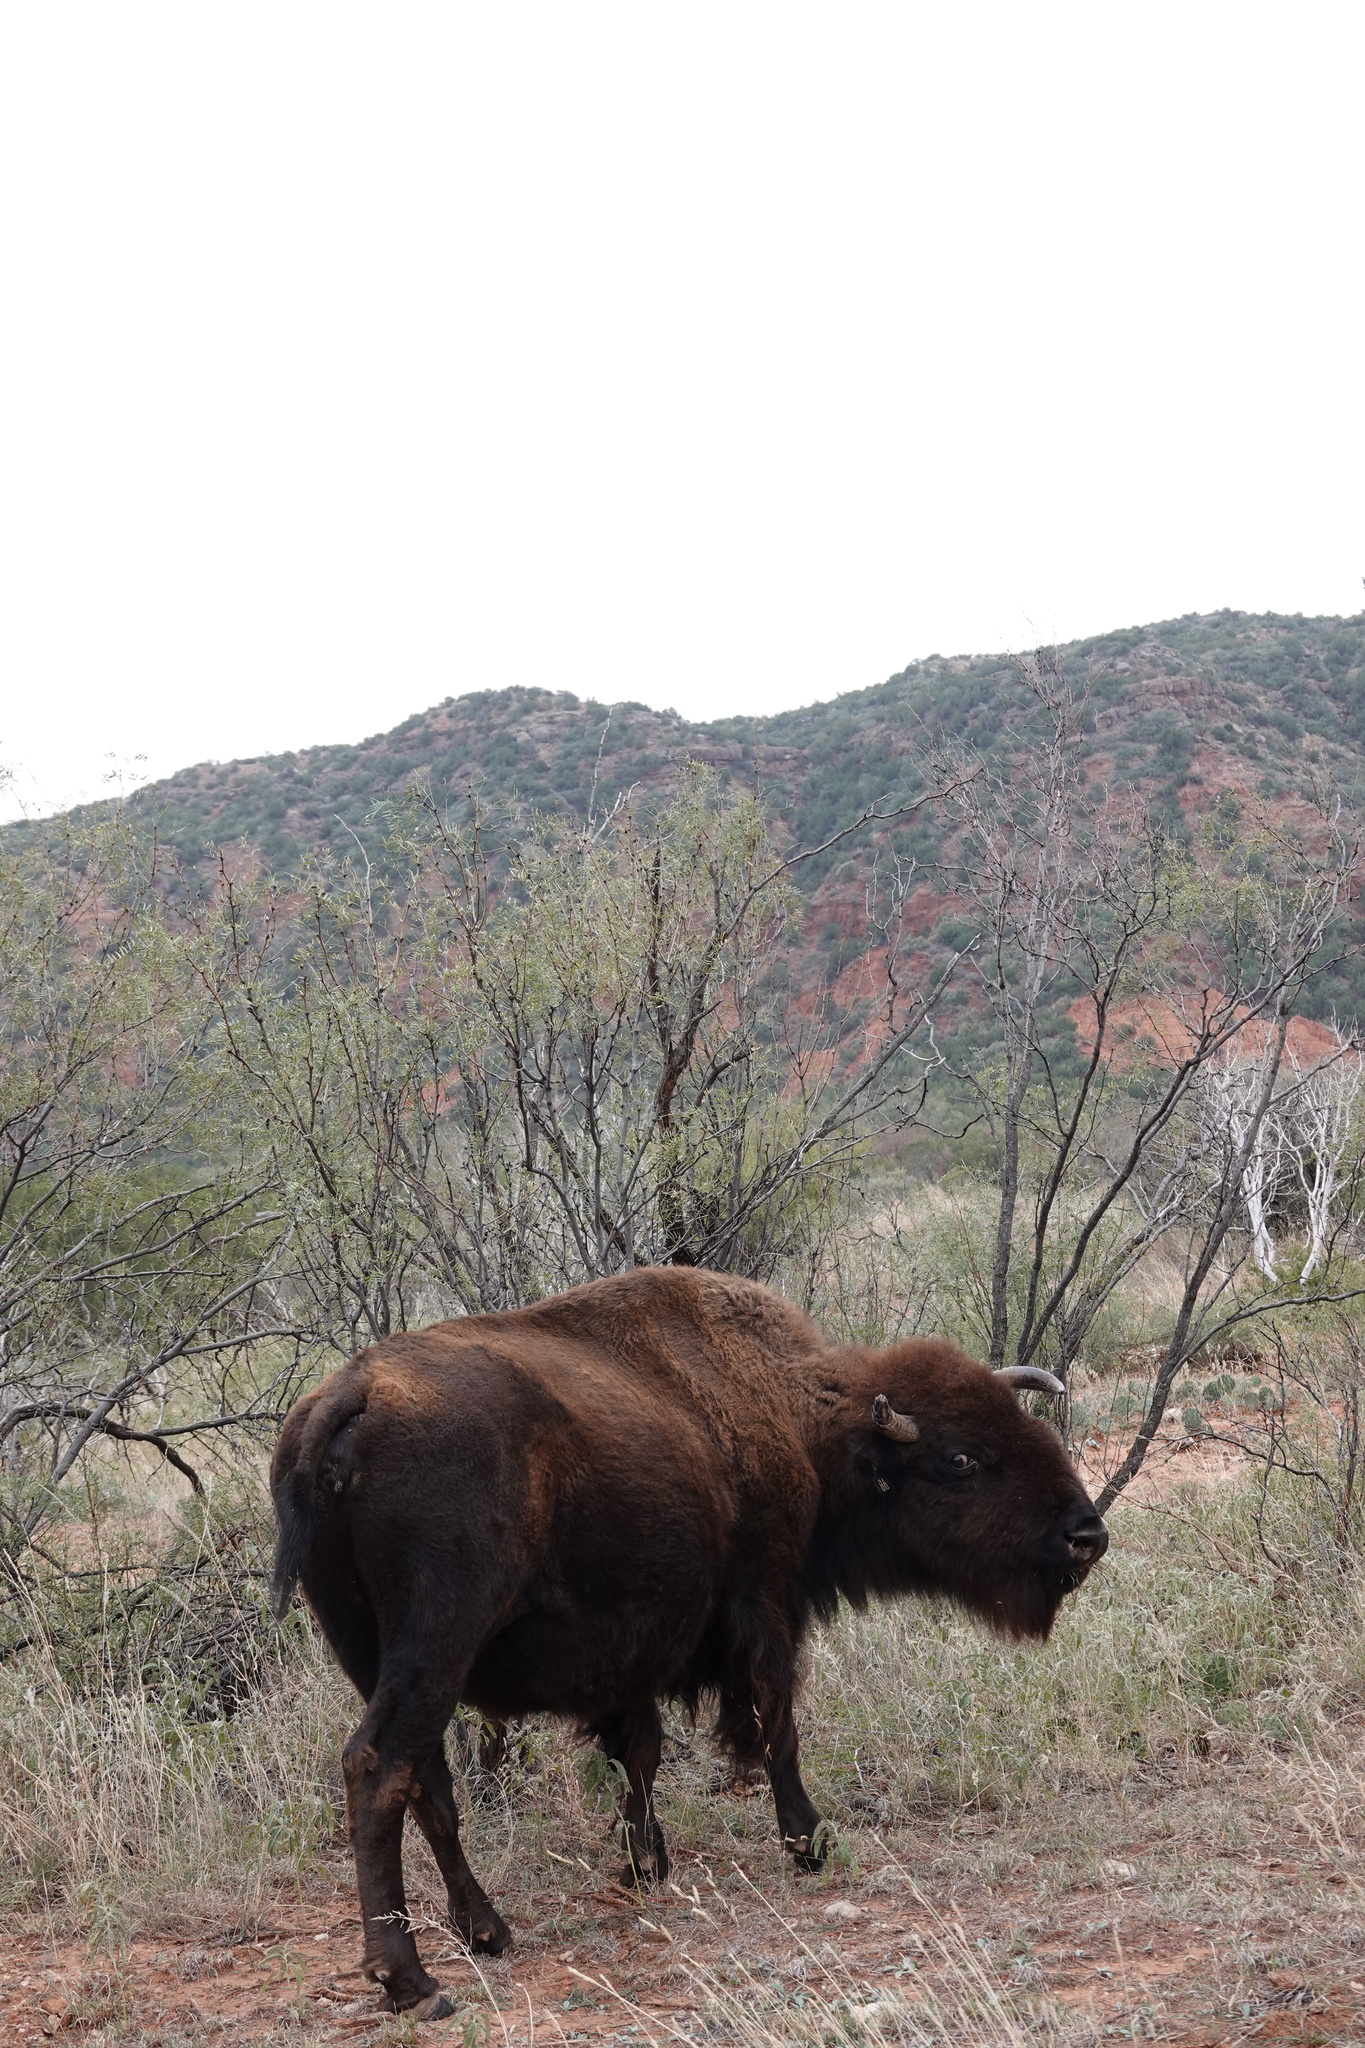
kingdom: Animalia
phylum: Chordata
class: Mammalia
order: Artiodactyla
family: Bovidae
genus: Bison
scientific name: Bison bison
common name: American bison
